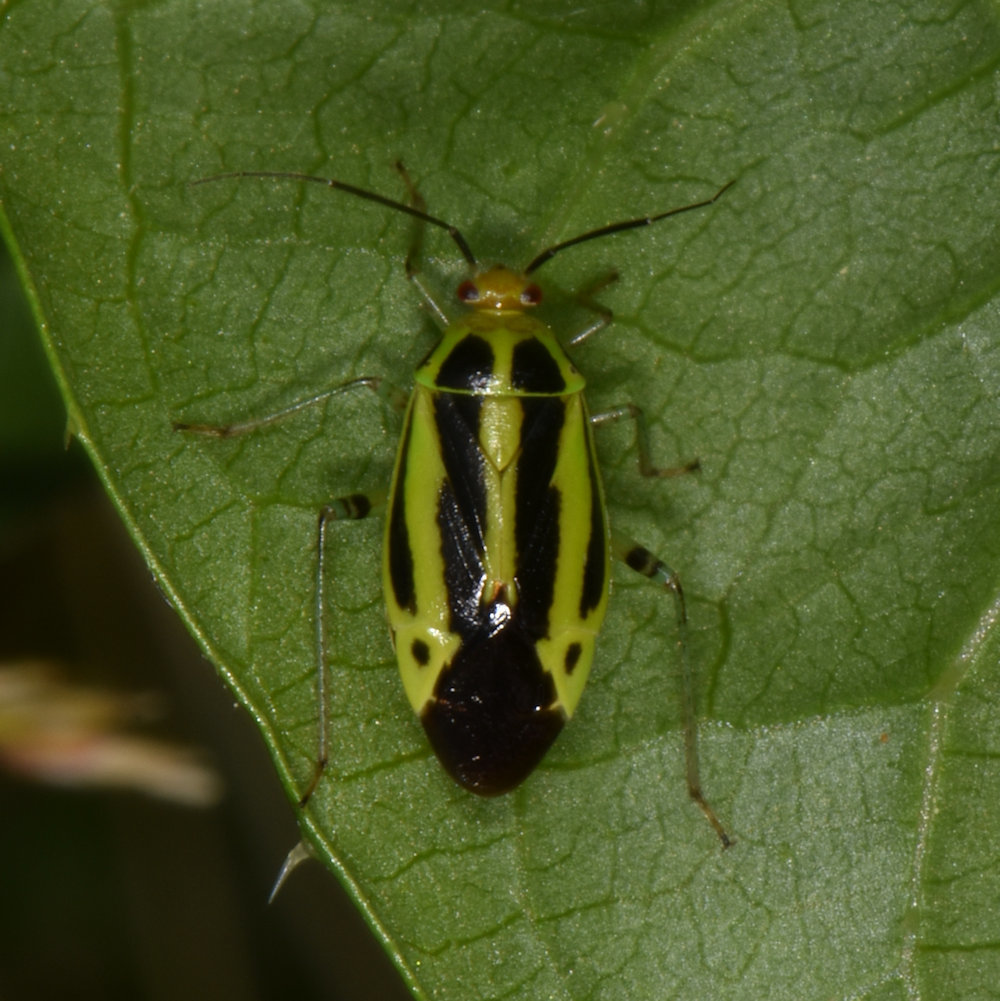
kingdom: Animalia
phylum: Arthropoda
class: Insecta
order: Hemiptera
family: Miridae
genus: Poecilocapsus
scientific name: Poecilocapsus lineatus
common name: Four-lined plant bug
